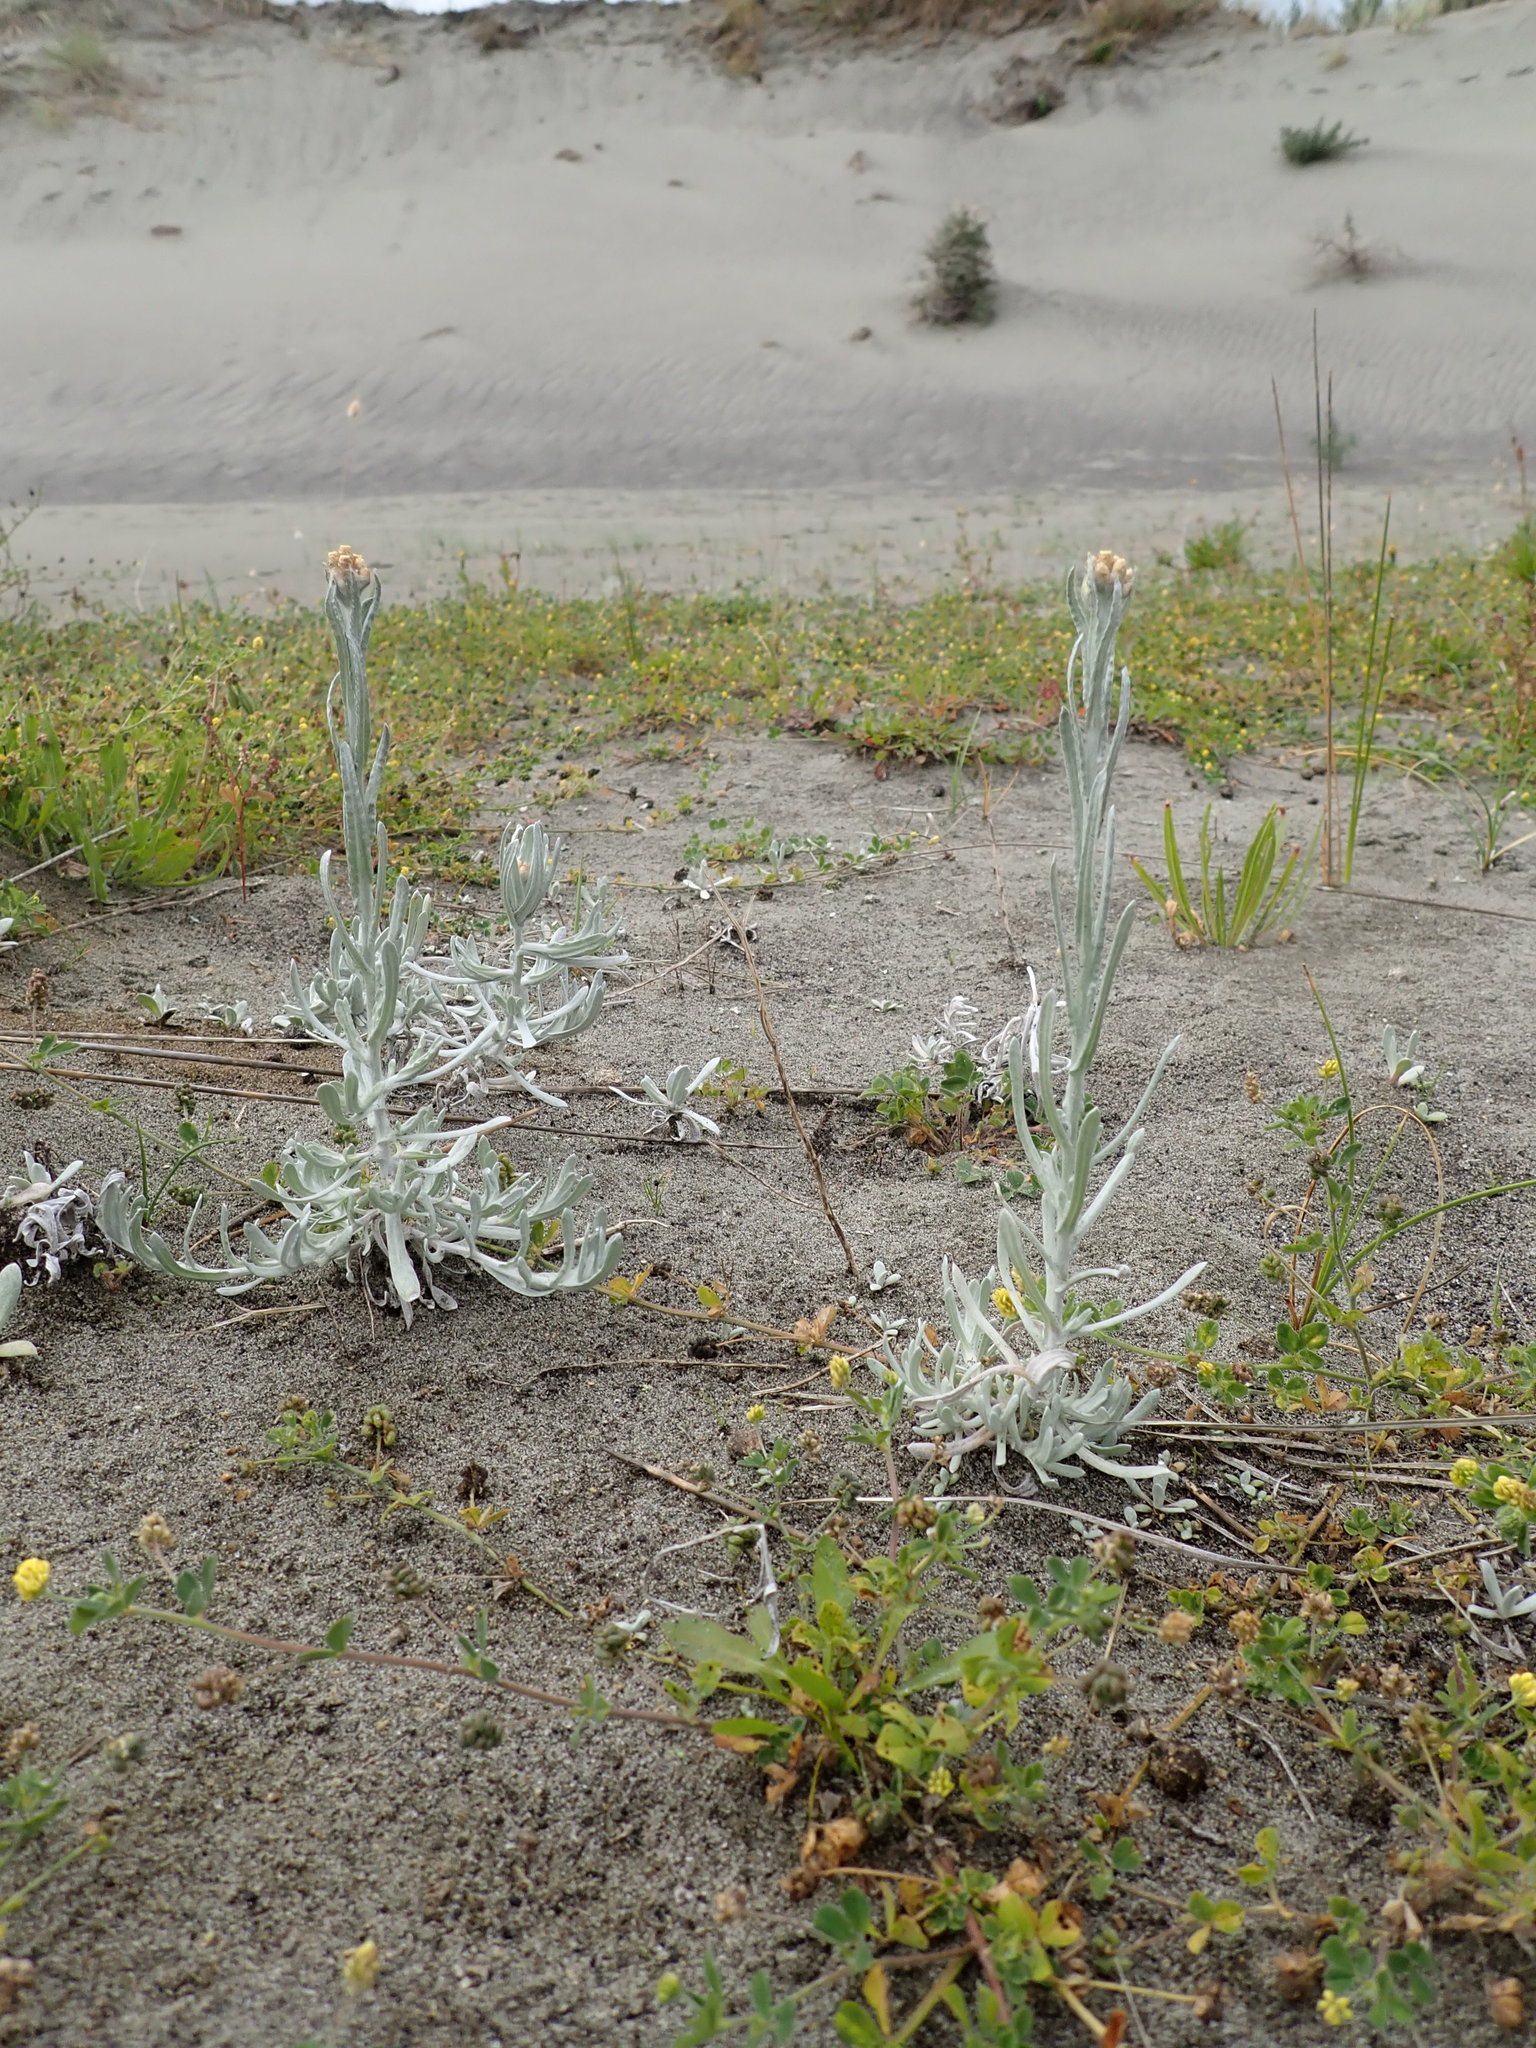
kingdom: Plantae
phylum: Tracheophyta
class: Magnoliopsida
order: Asterales
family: Asteraceae
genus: Helichrysum
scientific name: Helichrysum luteoalbum
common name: Daisy
